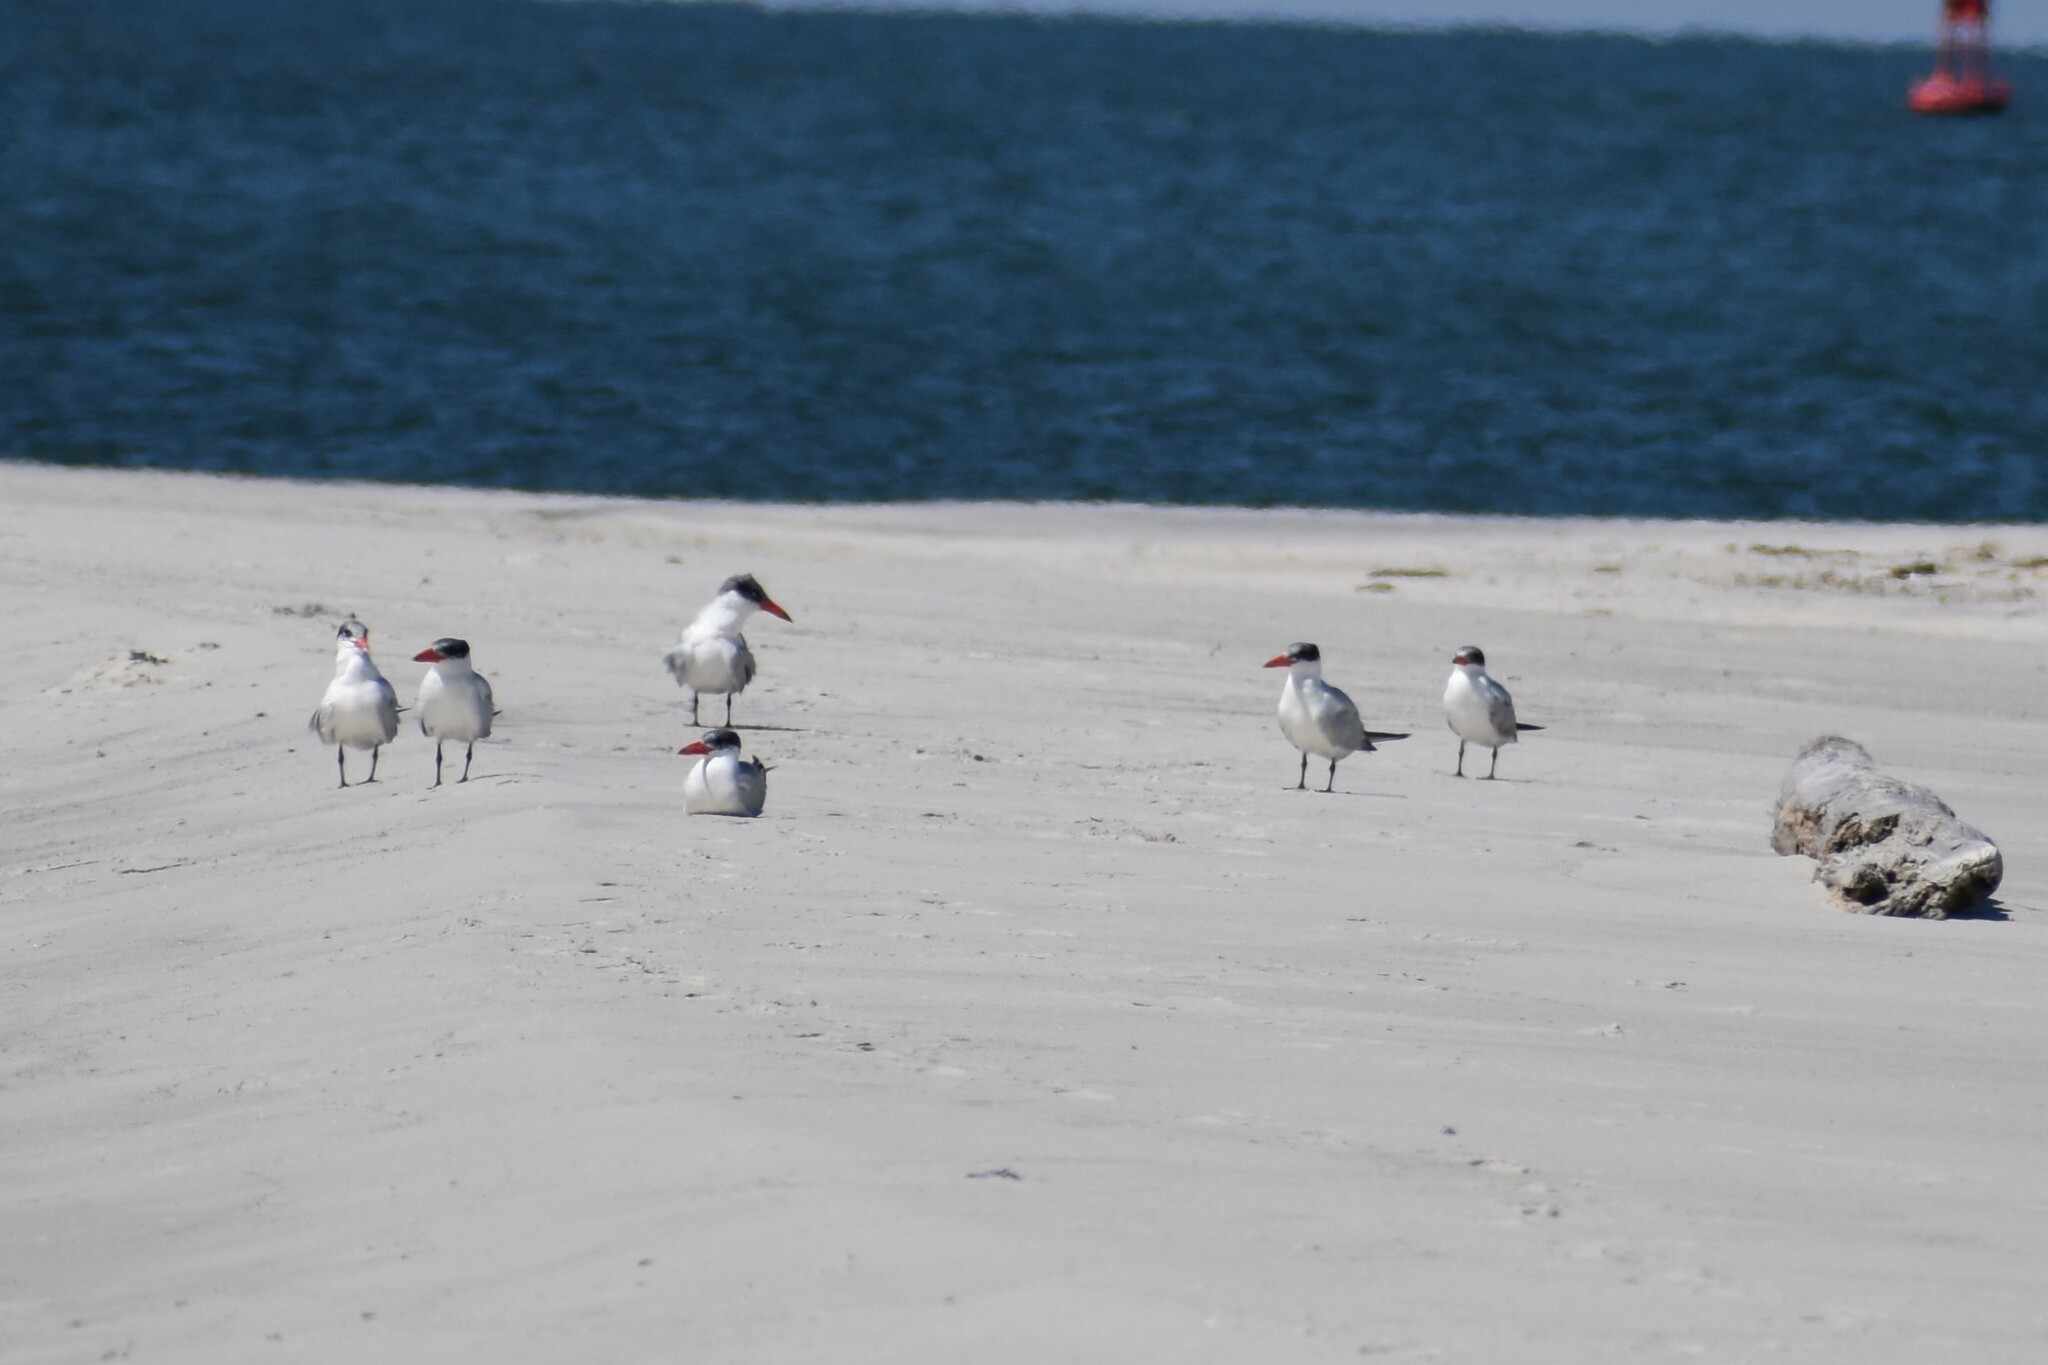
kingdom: Animalia
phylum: Chordata
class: Aves
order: Charadriiformes
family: Laridae
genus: Hydroprogne
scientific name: Hydroprogne caspia
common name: Caspian tern
